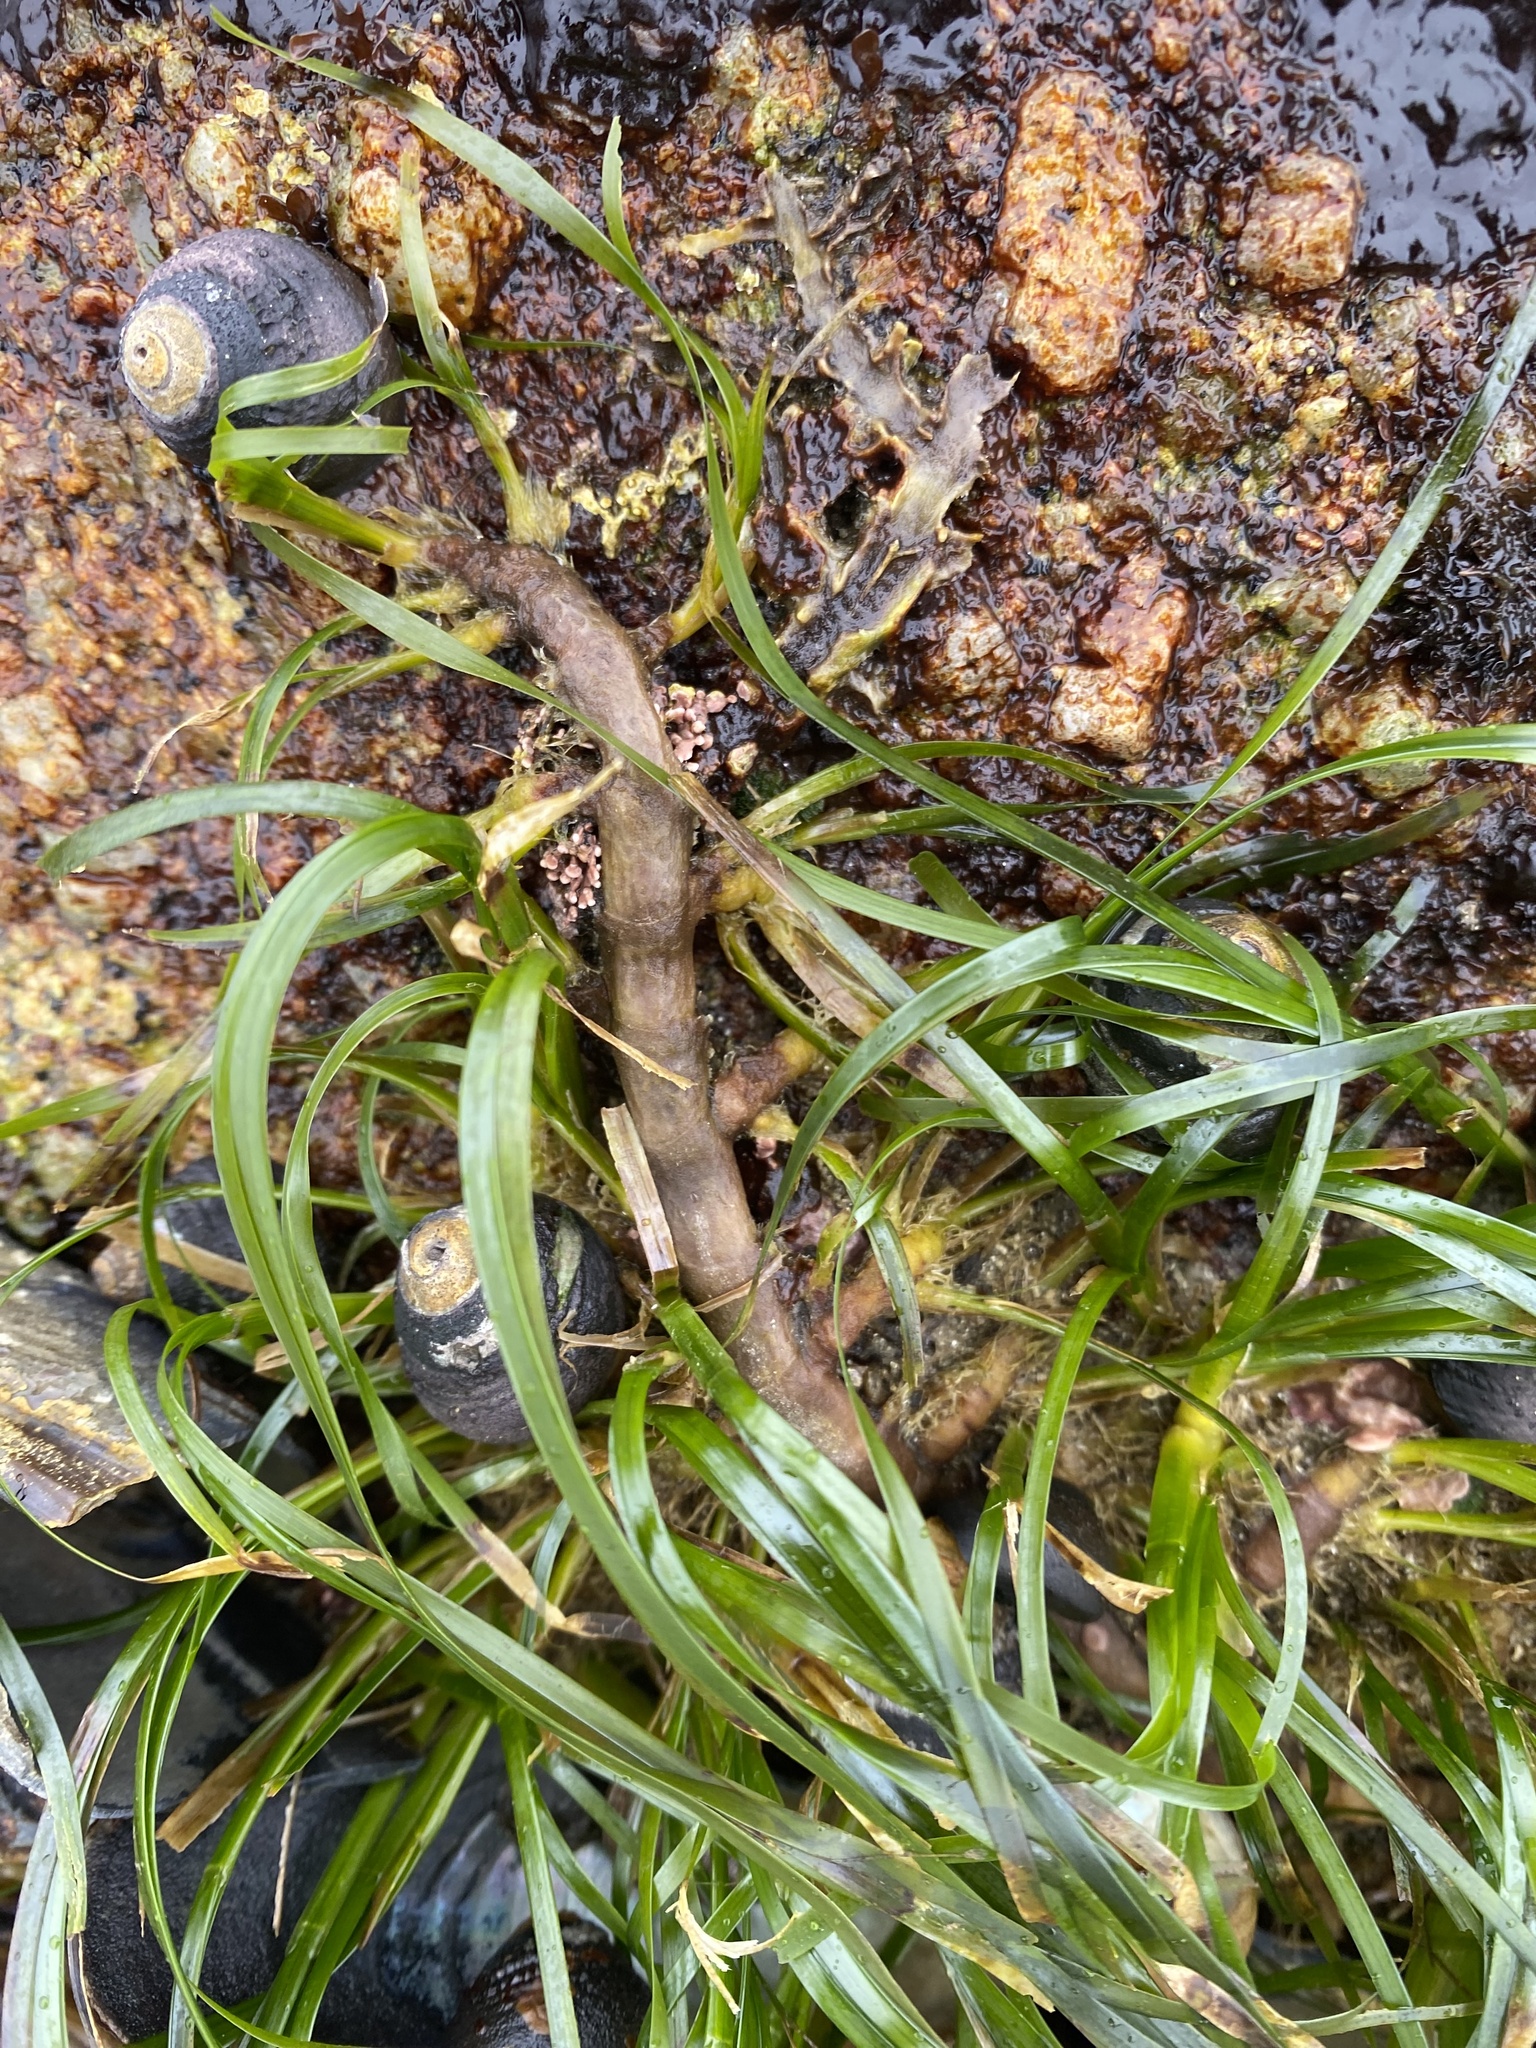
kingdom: Plantae
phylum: Tracheophyta
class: Liliopsida
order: Alismatales
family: Zosteraceae
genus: Phyllospadix
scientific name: Phyllospadix scouleri
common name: Species code: ps
